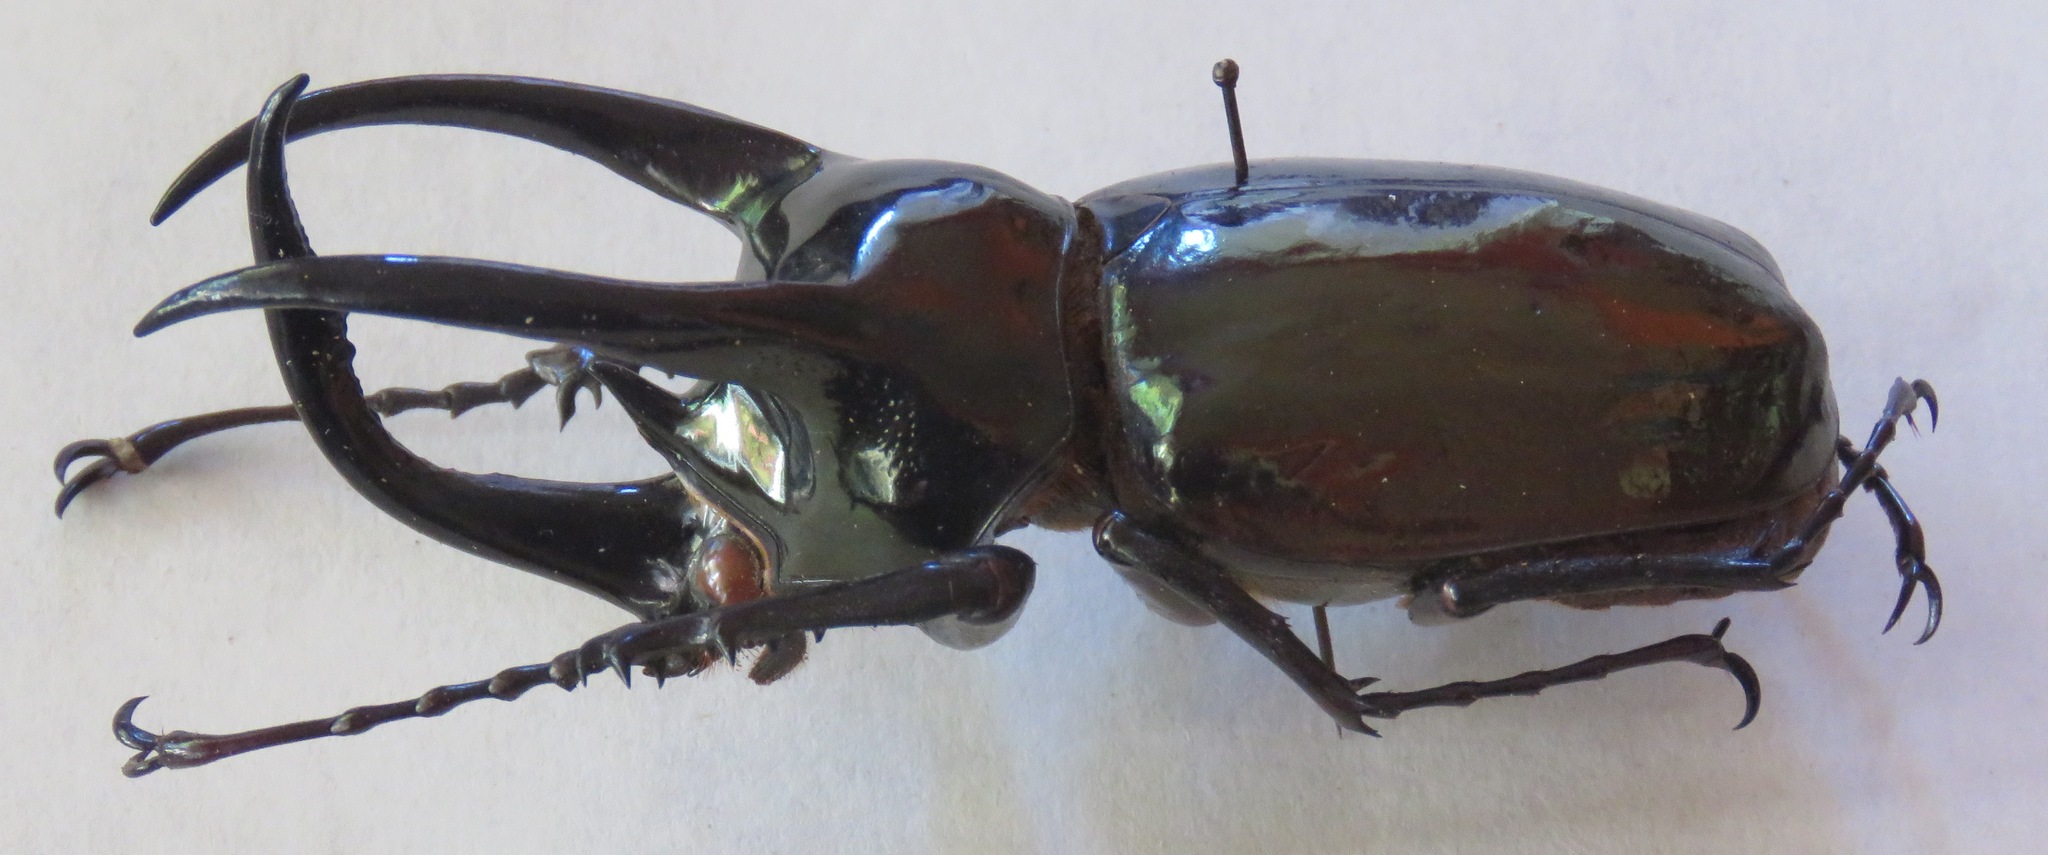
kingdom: Animalia
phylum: Arthropoda
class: Insecta
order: Coleoptera
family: Scarabaeidae
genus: Chalcosoma
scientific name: Chalcosoma atlas
